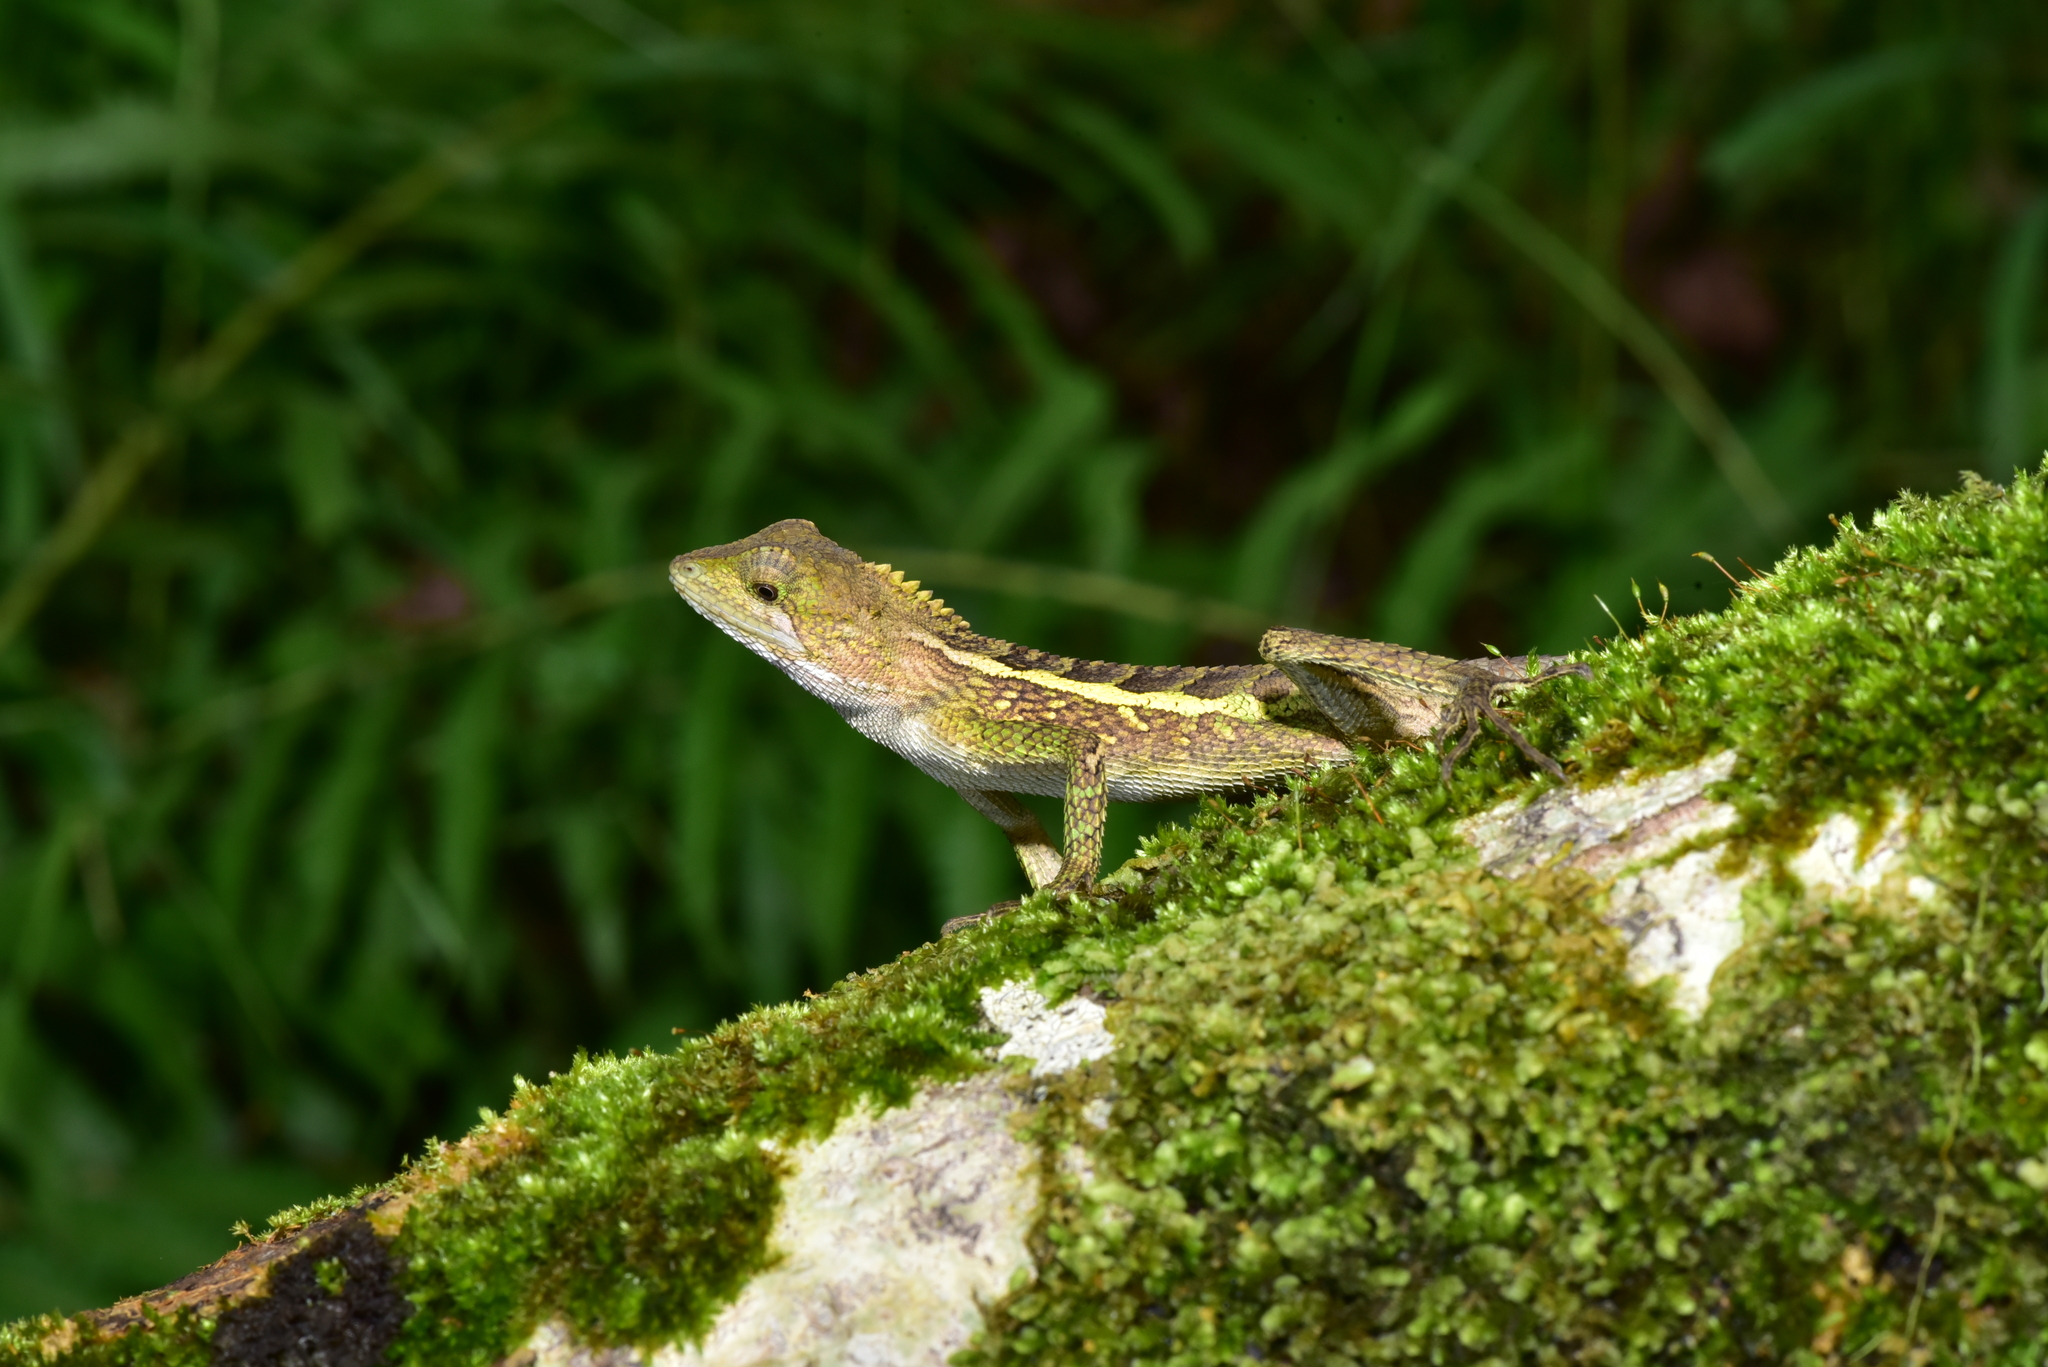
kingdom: Animalia
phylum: Chordata
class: Squamata
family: Agamidae
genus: Diploderma
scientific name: Diploderma swinhonis
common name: Taiwan japalure
